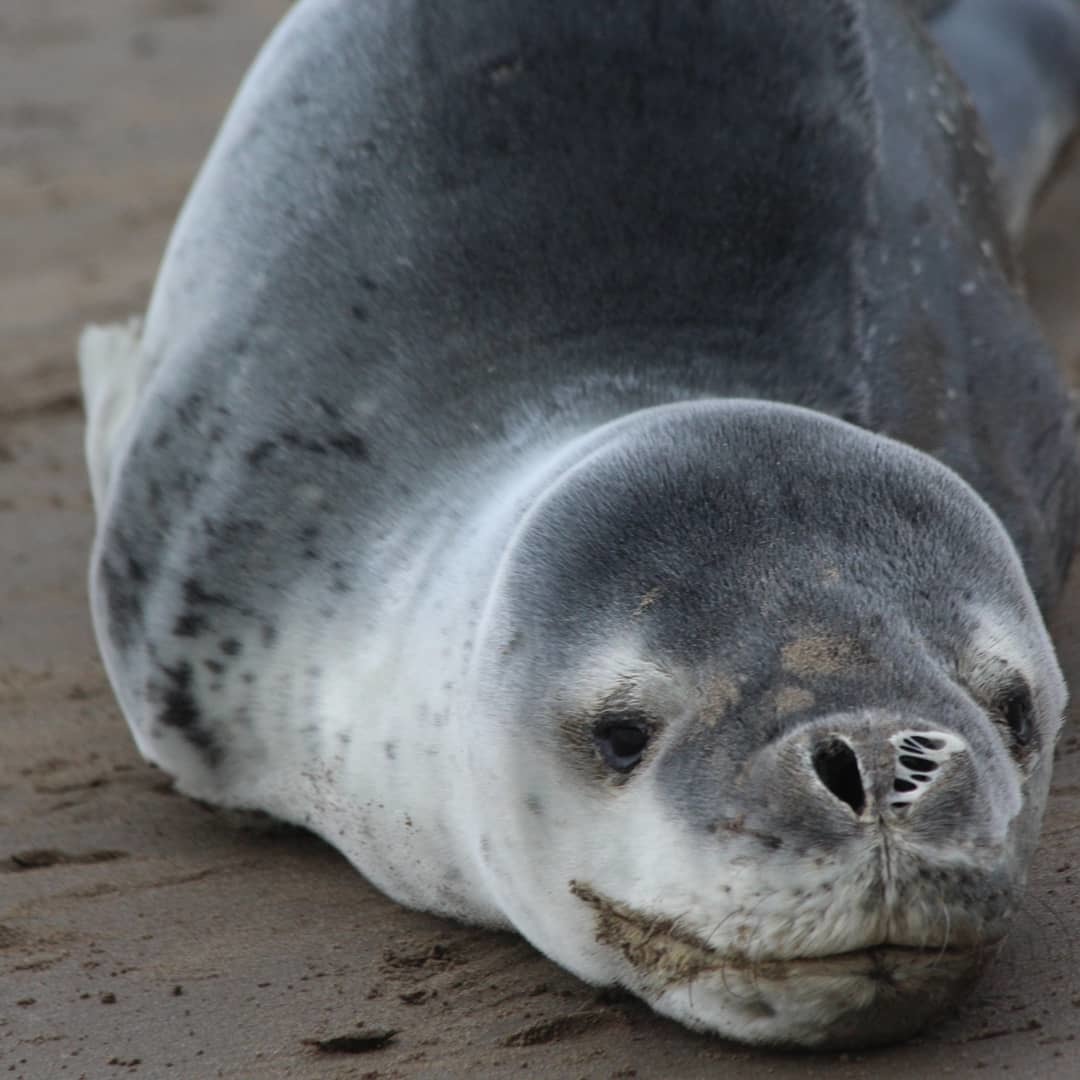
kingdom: Animalia
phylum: Chordata
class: Mammalia
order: Carnivora
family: Phocidae
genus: Hydrurga
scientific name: Hydrurga leptonyx
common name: Leopard seal
